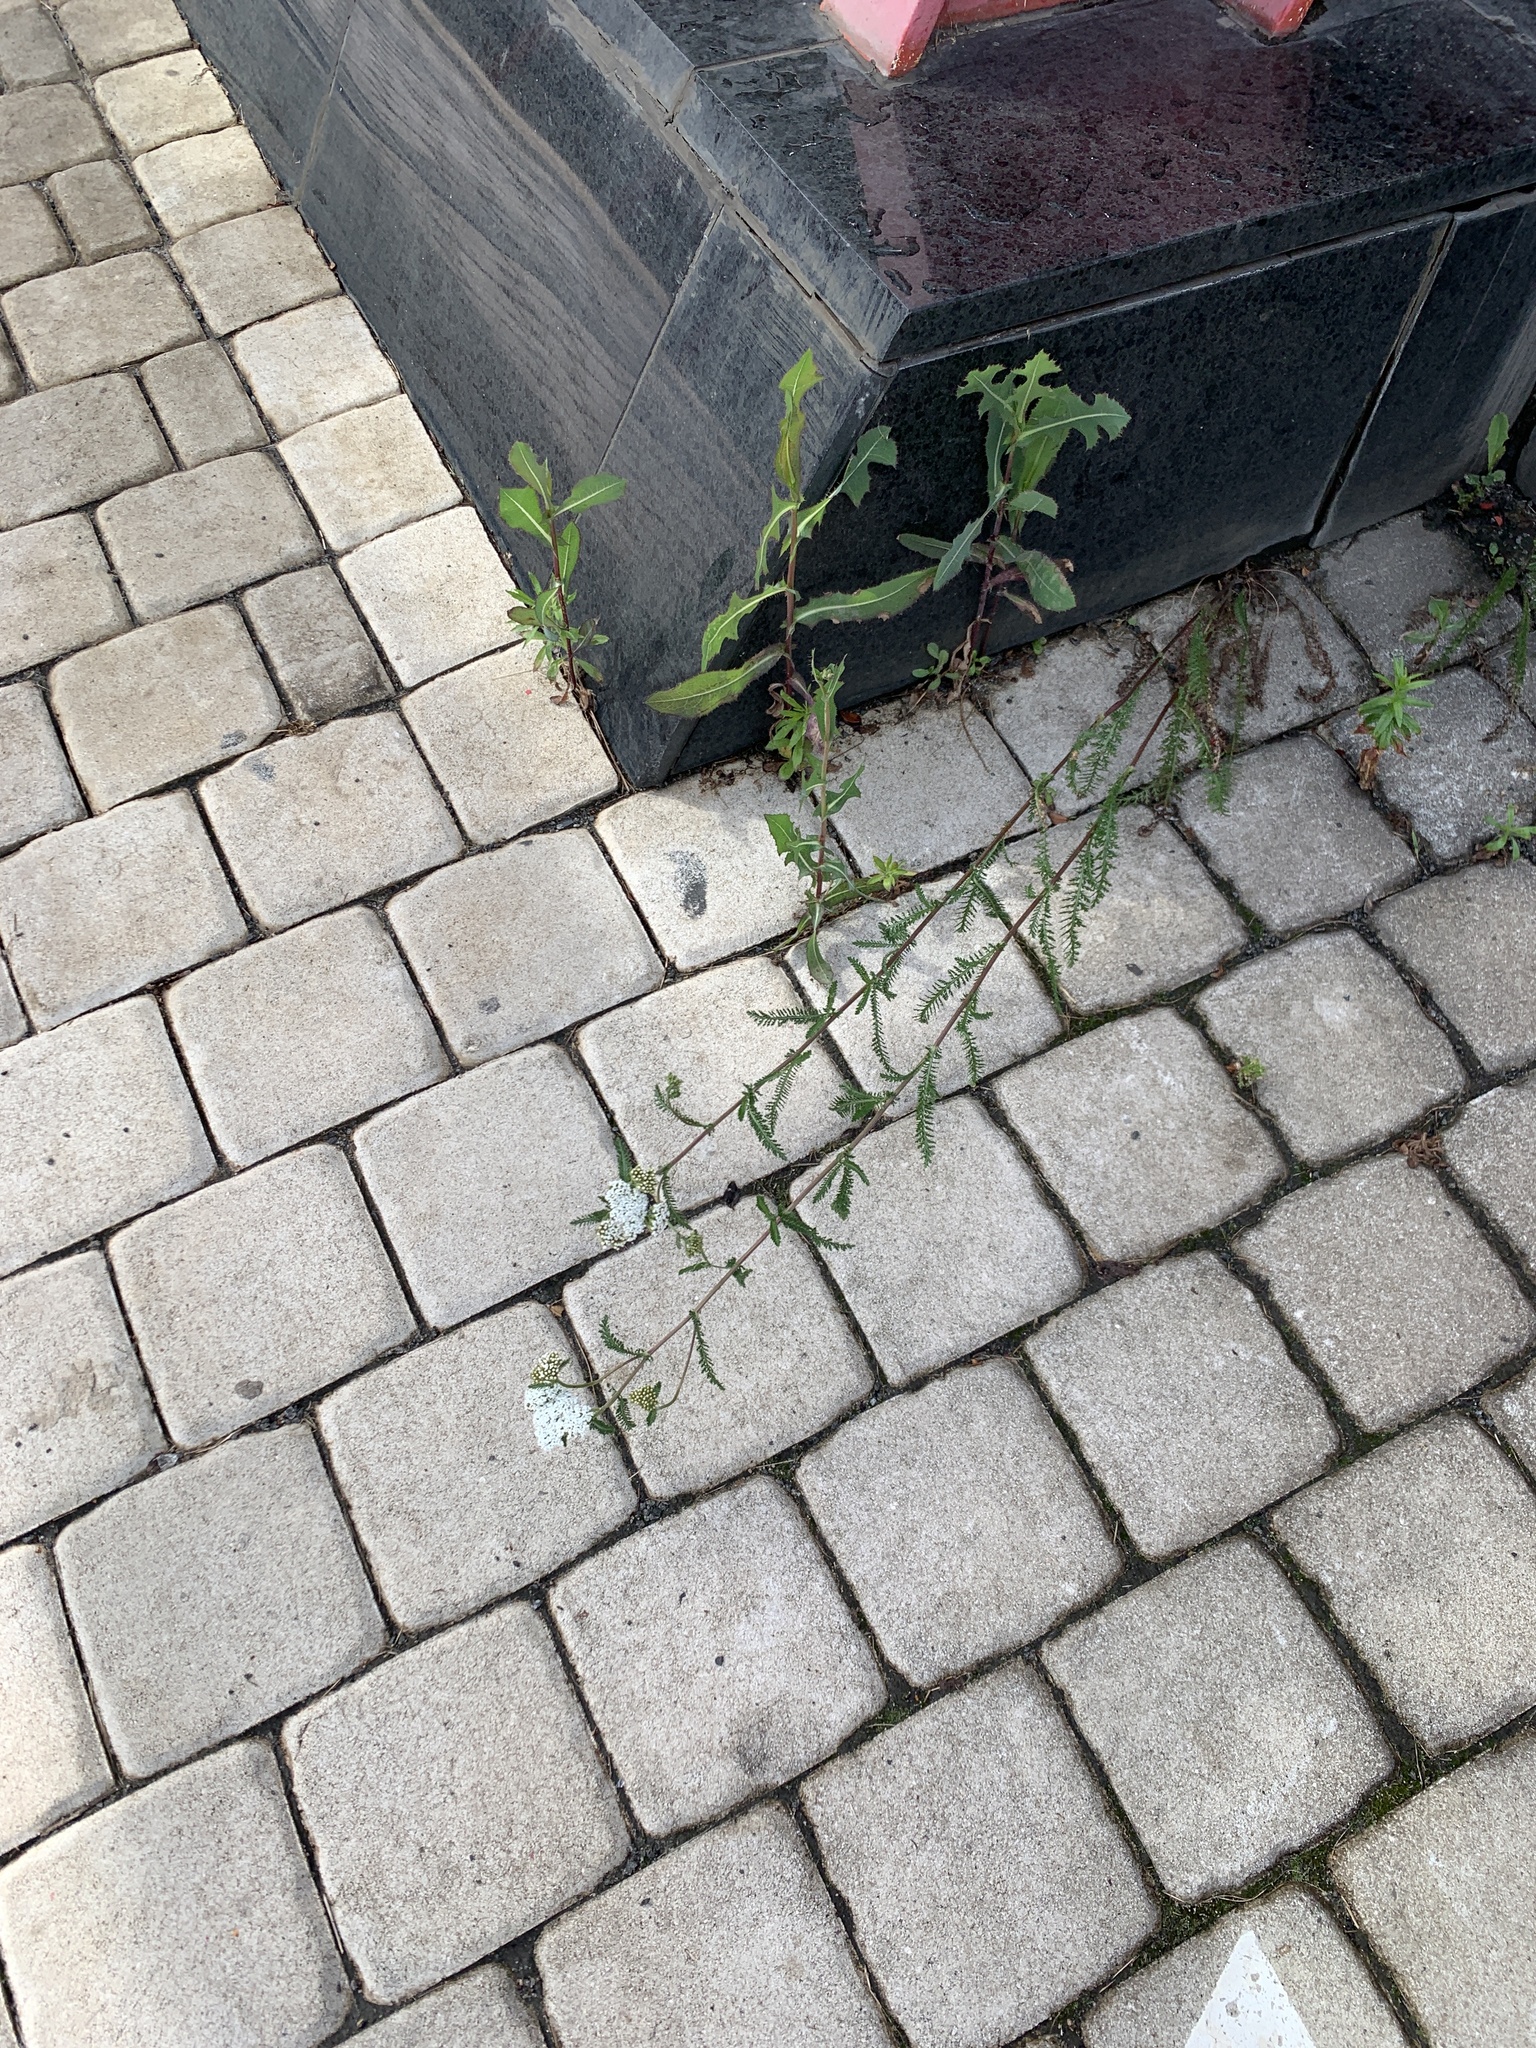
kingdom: Plantae
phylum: Tracheophyta
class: Magnoliopsida
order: Asterales
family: Asteraceae
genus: Achillea
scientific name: Achillea millefolium
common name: Yarrow
